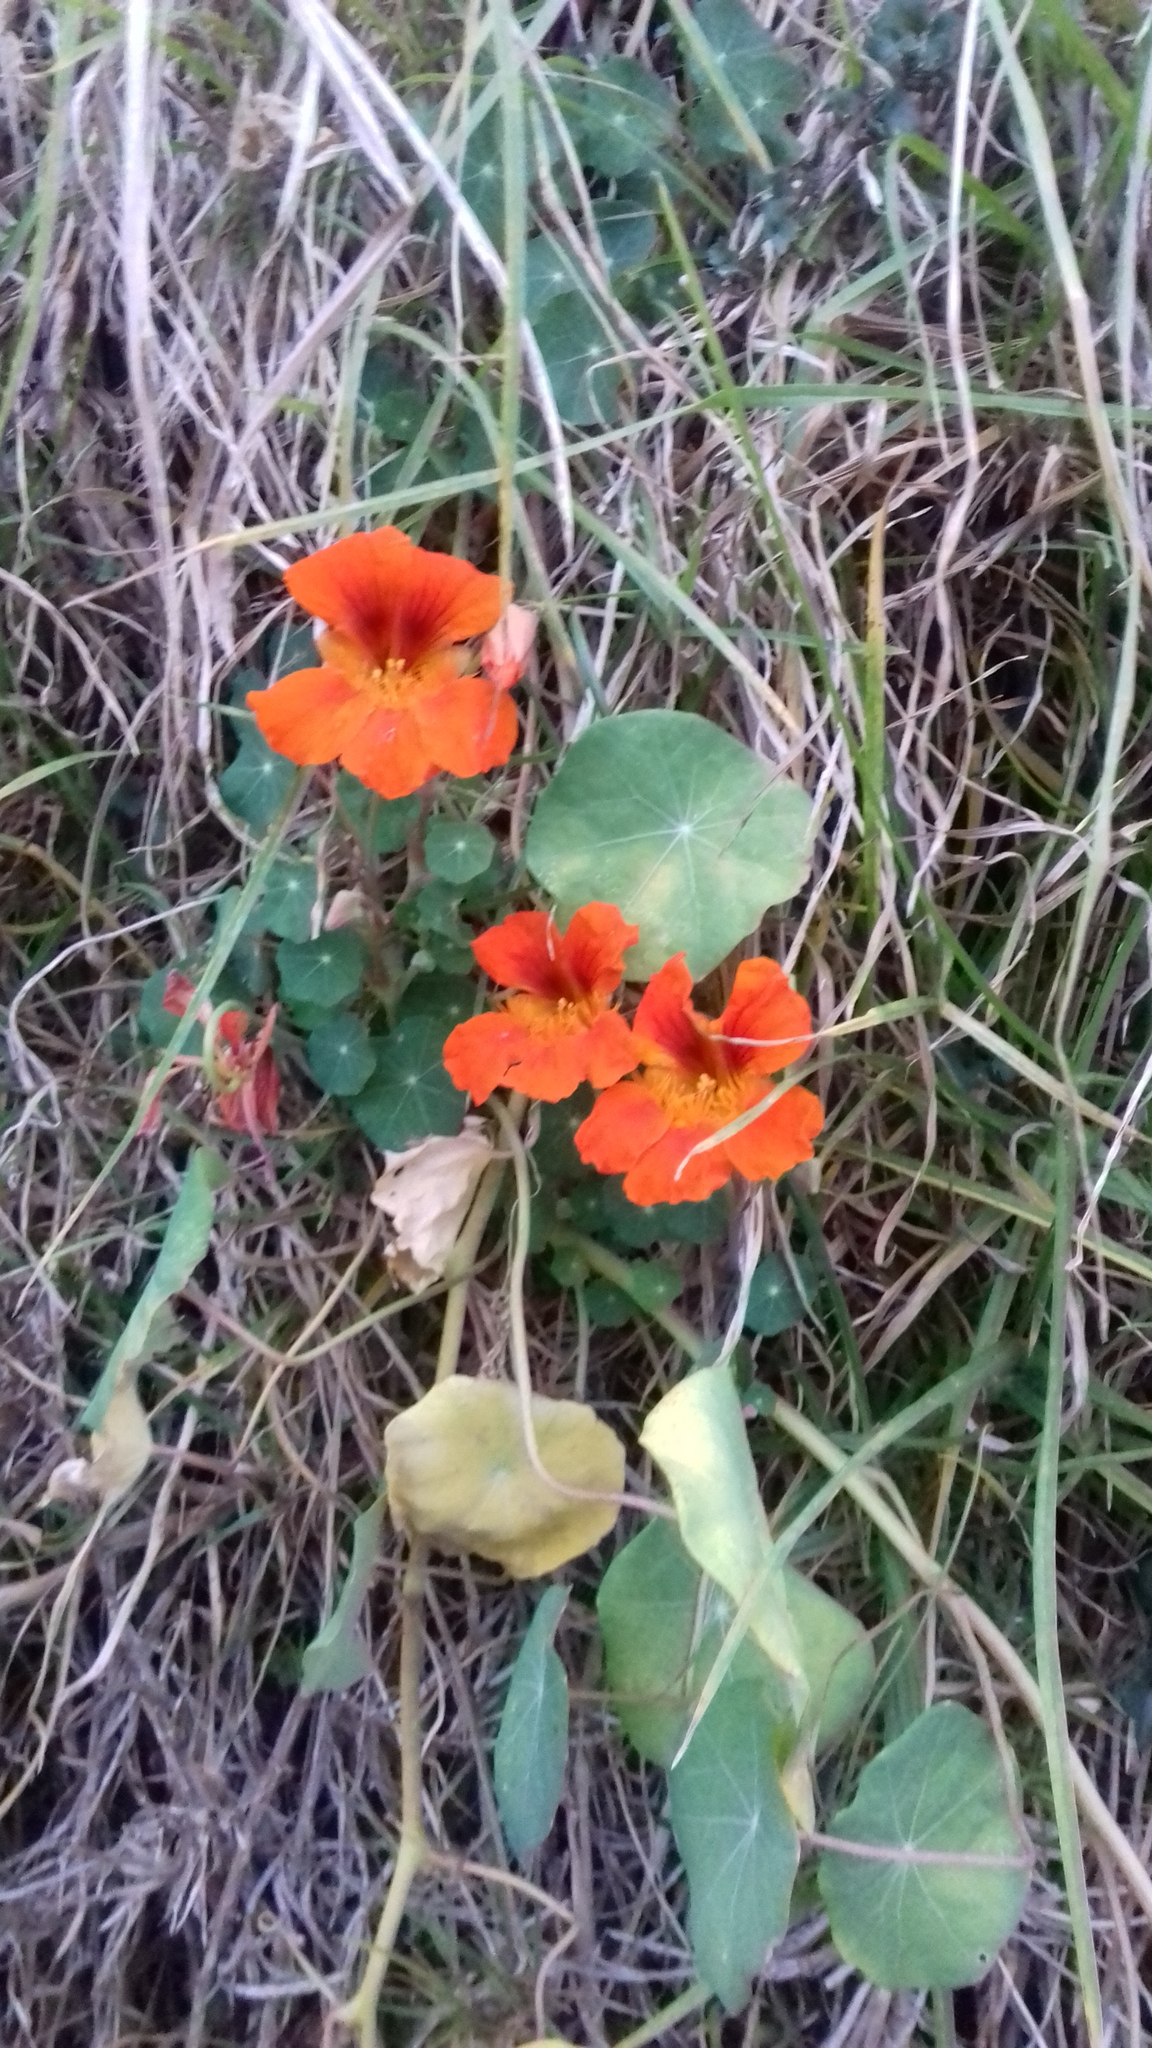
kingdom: Plantae
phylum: Tracheophyta
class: Magnoliopsida
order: Brassicales
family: Tropaeolaceae
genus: Tropaeolum
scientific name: Tropaeolum majus
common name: Nasturtium
